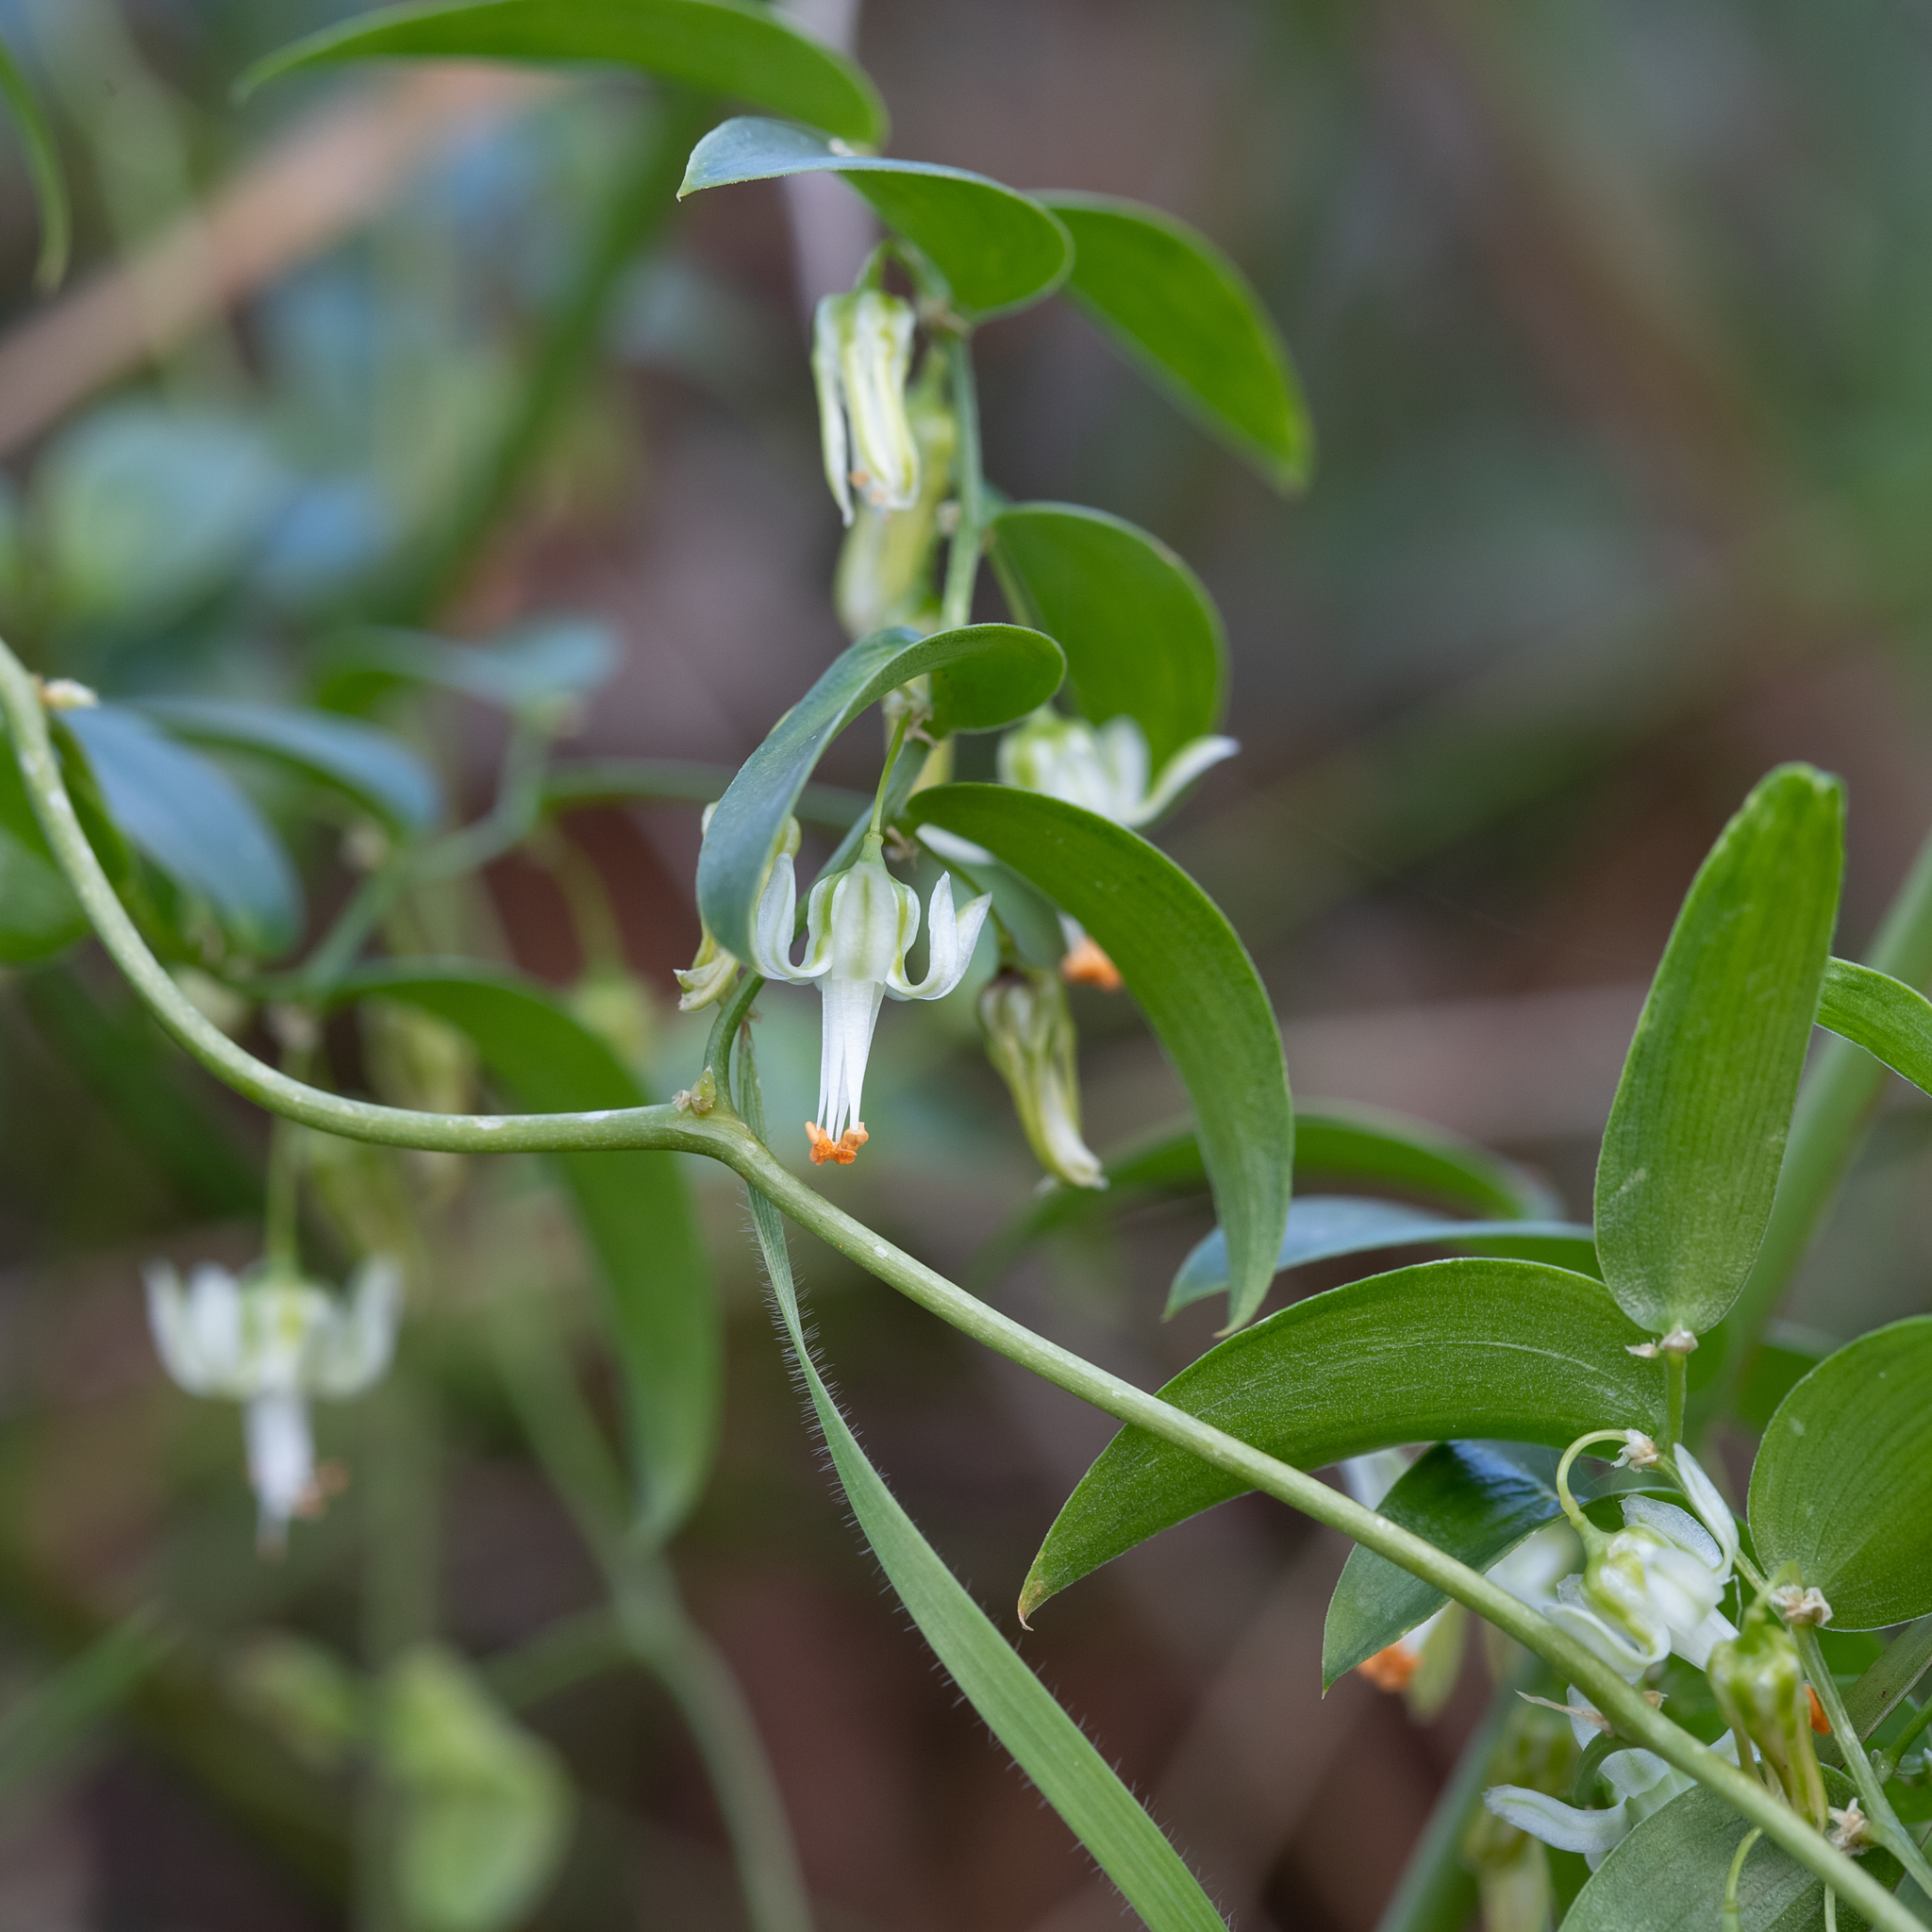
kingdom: Plantae
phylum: Tracheophyta
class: Liliopsida
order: Asparagales
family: Asparagaceae
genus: Asparagus
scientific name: Asparagus asparagoides
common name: African asparagus fern
